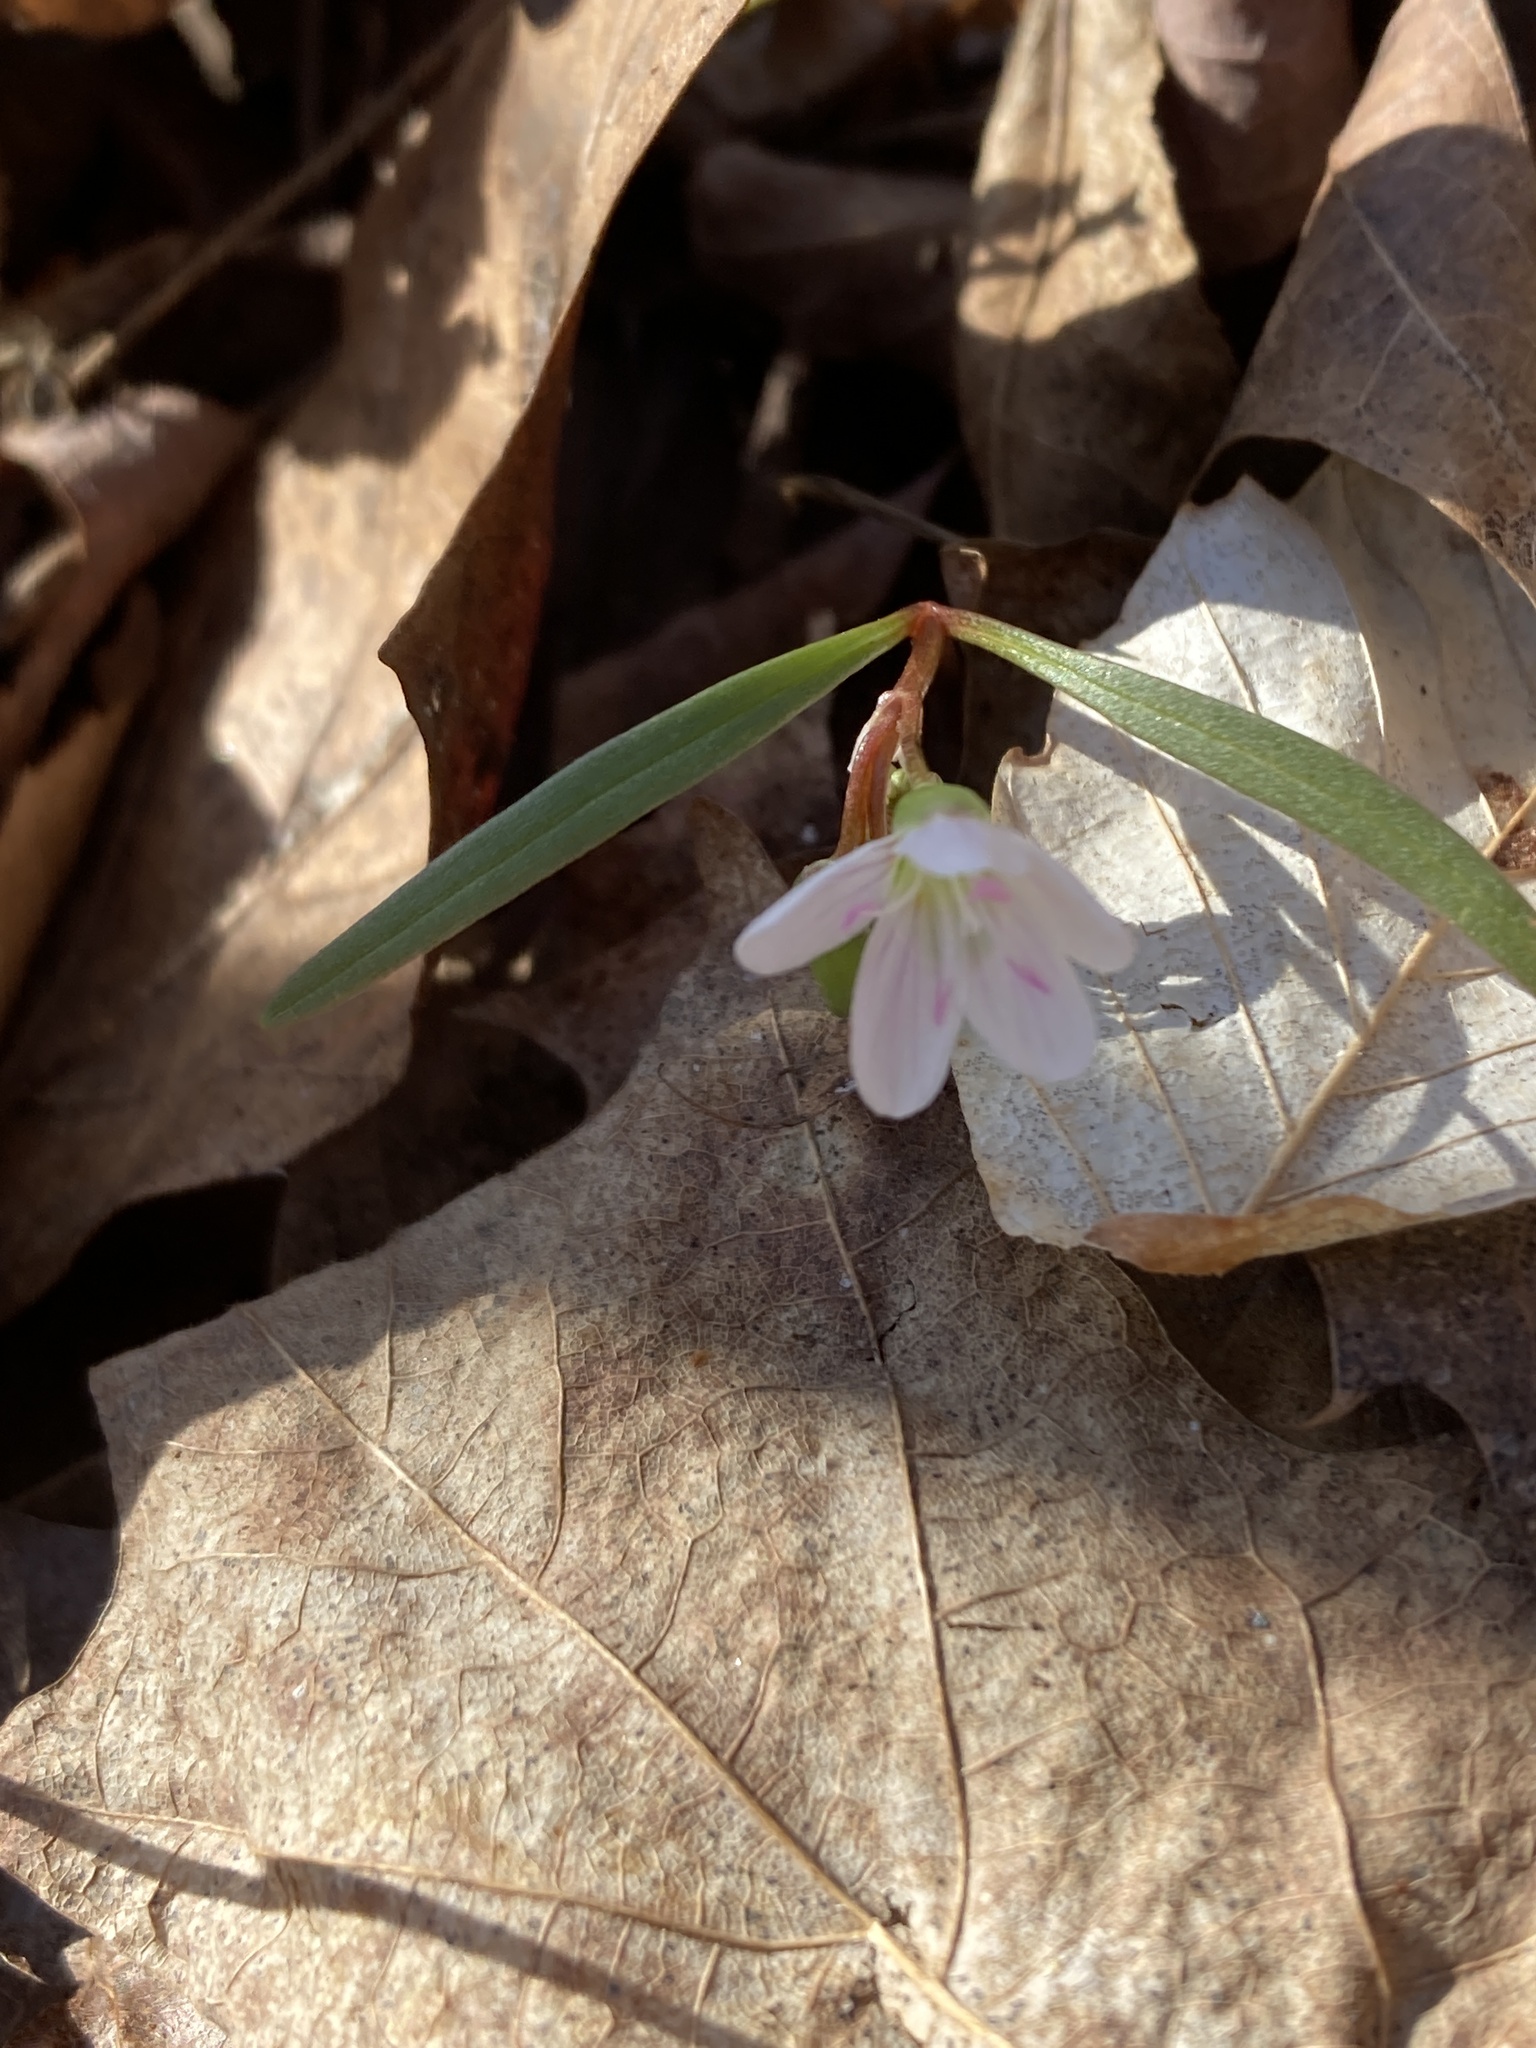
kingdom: Plantae
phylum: Tracheophyta
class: Magnoliopsida
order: Caryophyllales
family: Montiaceae
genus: Claytonia
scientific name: Claytonia virginica
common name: Virginia springbeauty
